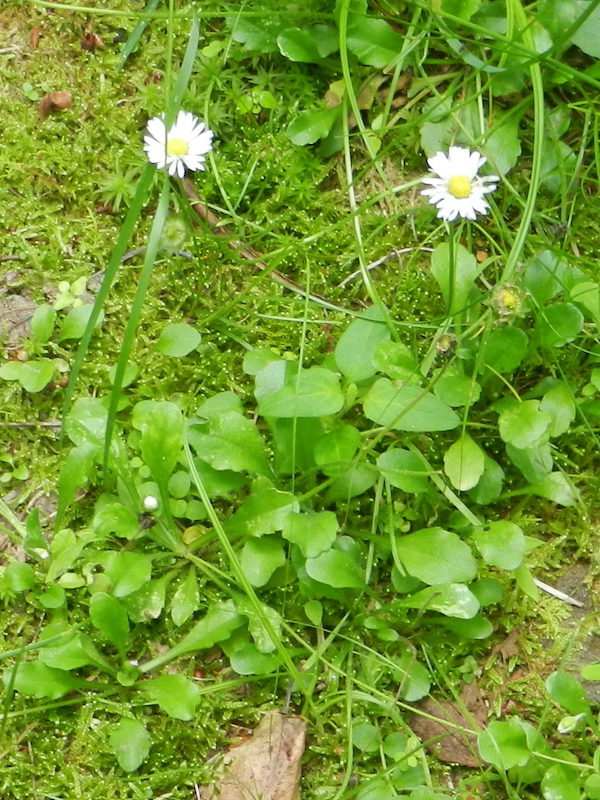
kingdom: Plantae
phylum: Tracheophyta
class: Magnoliopsida
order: Asterales
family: Asteraceae
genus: Bellis
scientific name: Bellis perennis
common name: Lawndaisy
